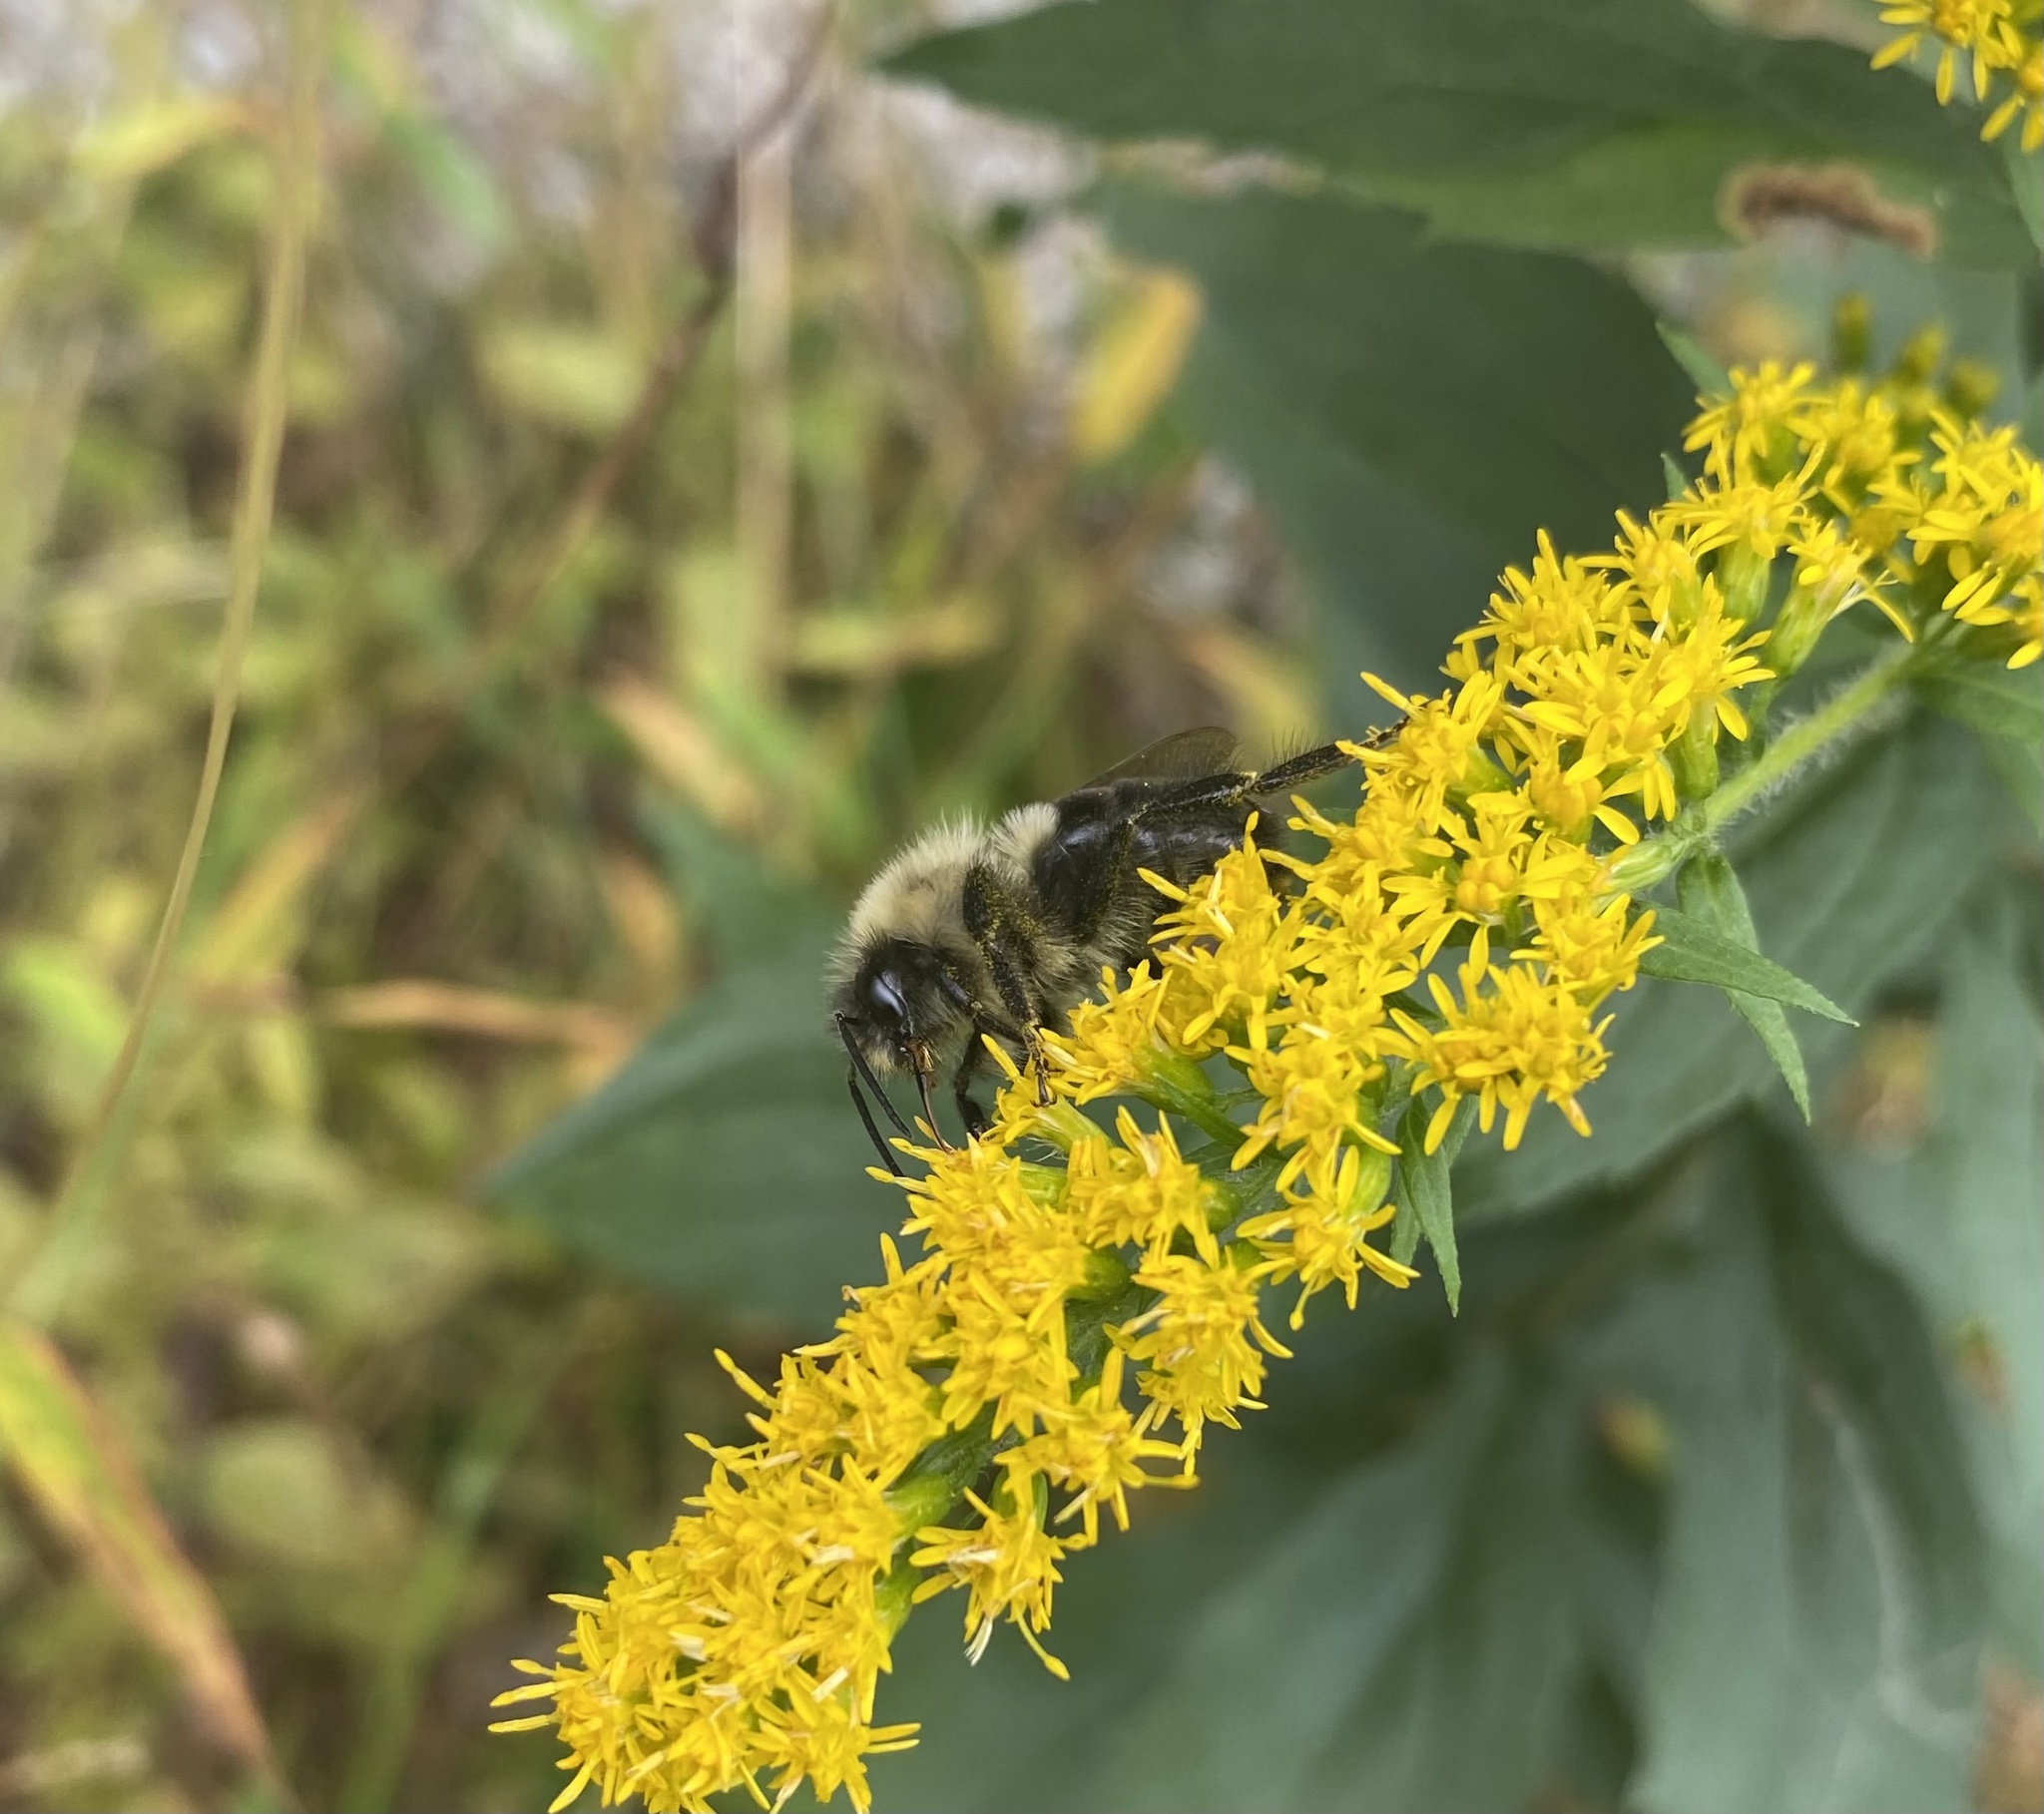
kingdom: Animalia
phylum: Arthropoda
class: Insecta
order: Hymenoptera
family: Apidae
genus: Bombus
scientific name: Bombus impatiens
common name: Common eastern bumble bee
